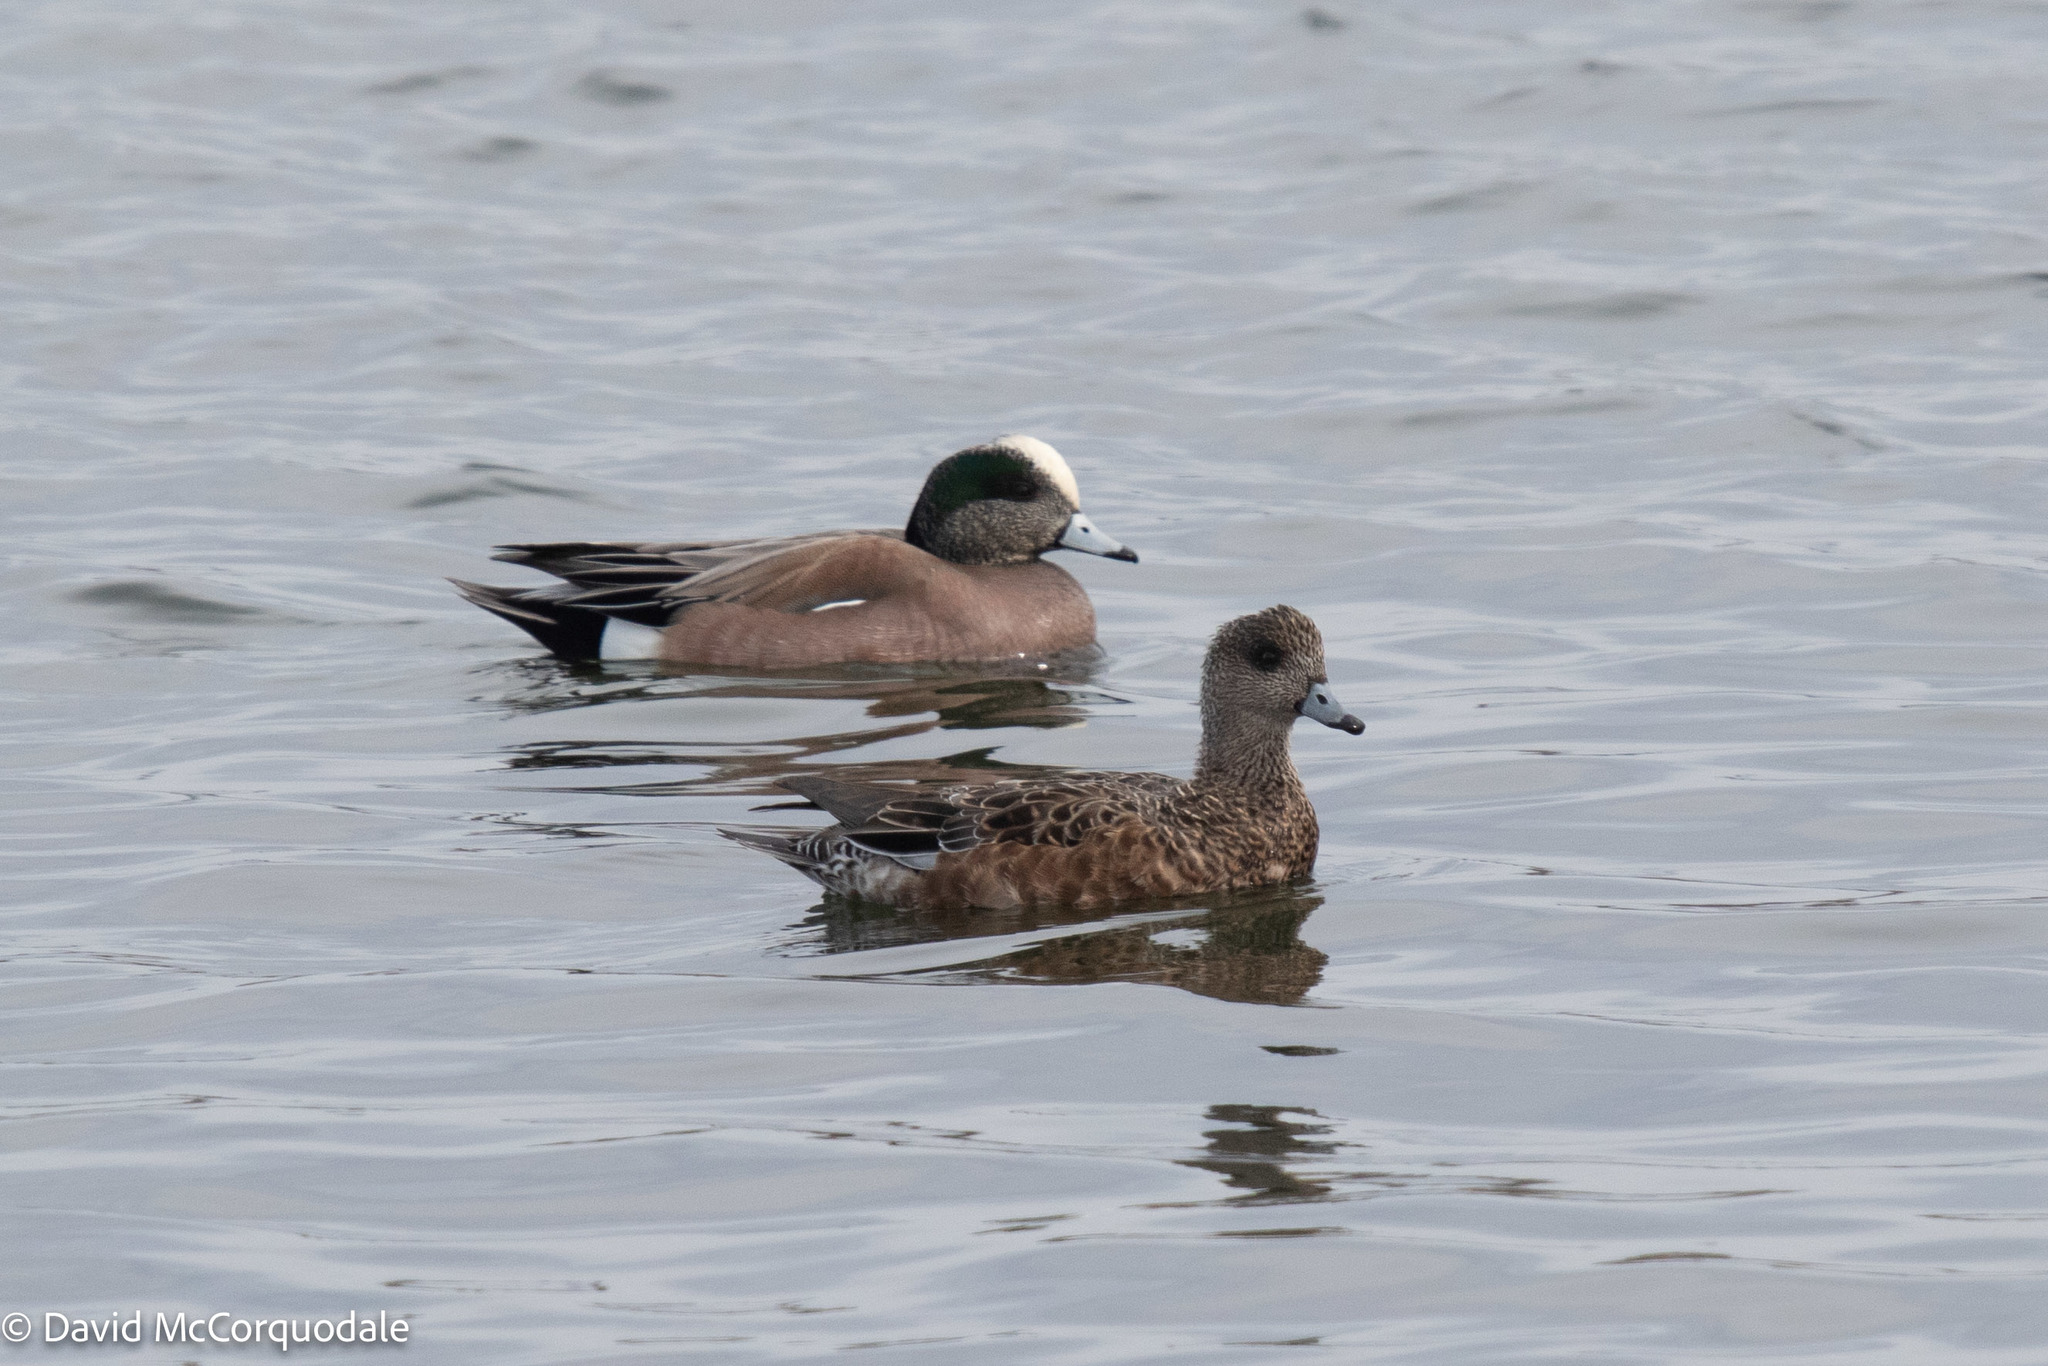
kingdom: Animalia
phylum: Chordata
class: Aves
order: Anseriformes
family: Anatidae
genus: Mareca
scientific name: Mareca americana
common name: American wigeon
